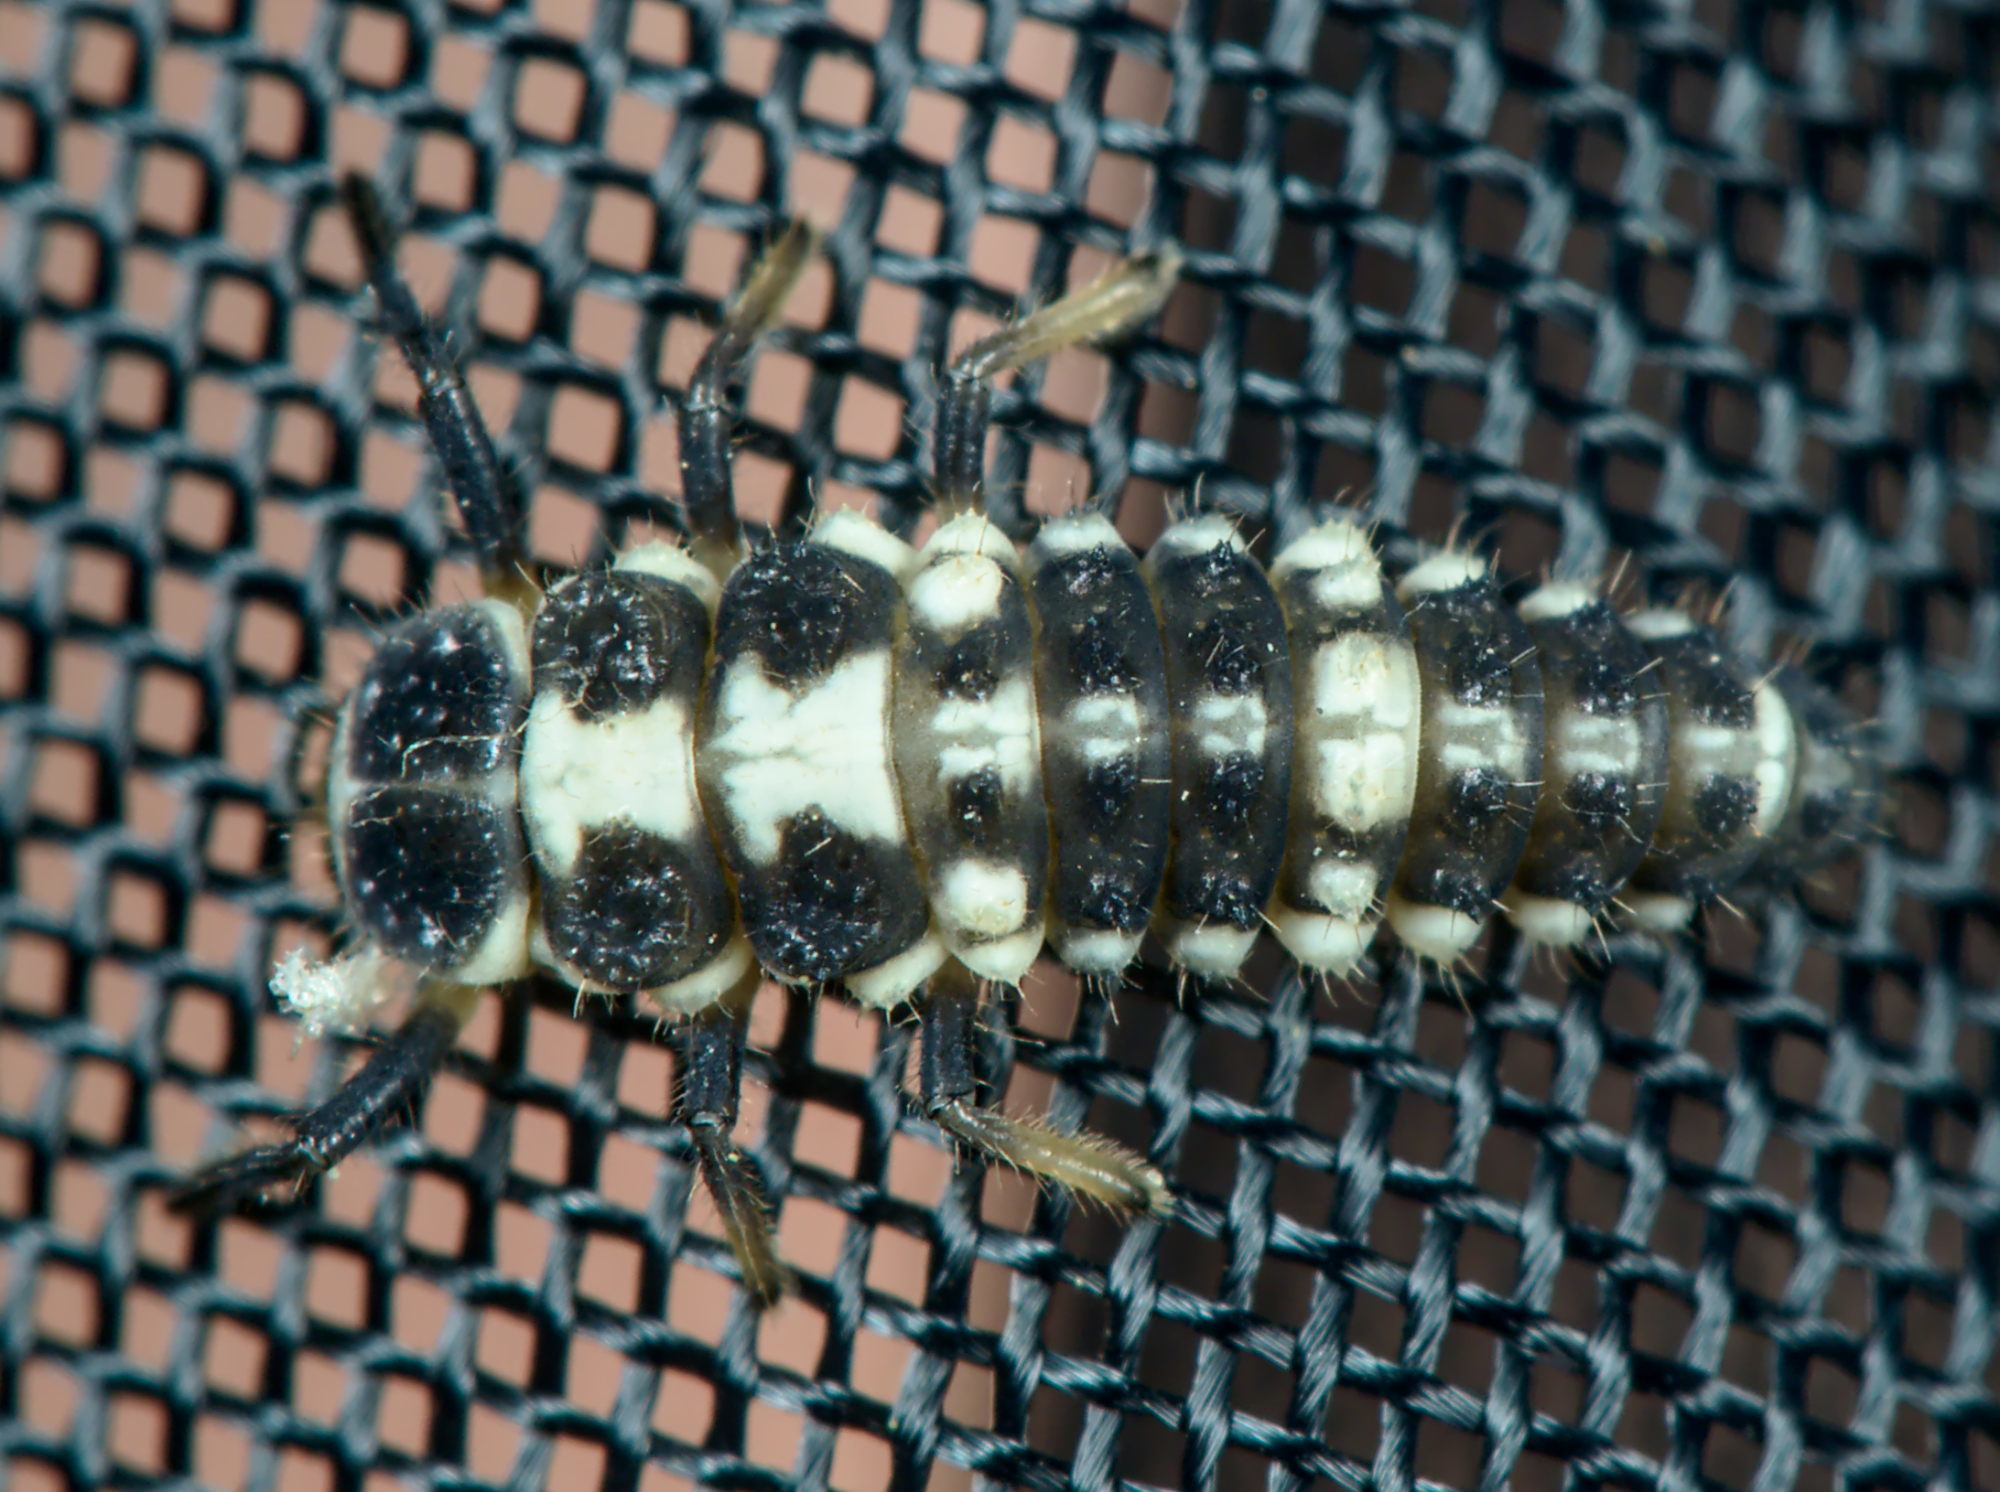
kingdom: Animalia
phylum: Arthropoda
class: Insecta
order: Coleoptera
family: Coccinellidae
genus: Propylaea
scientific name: Propylaea quatuordecimpunctata
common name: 14-spotted ladybird beetle
